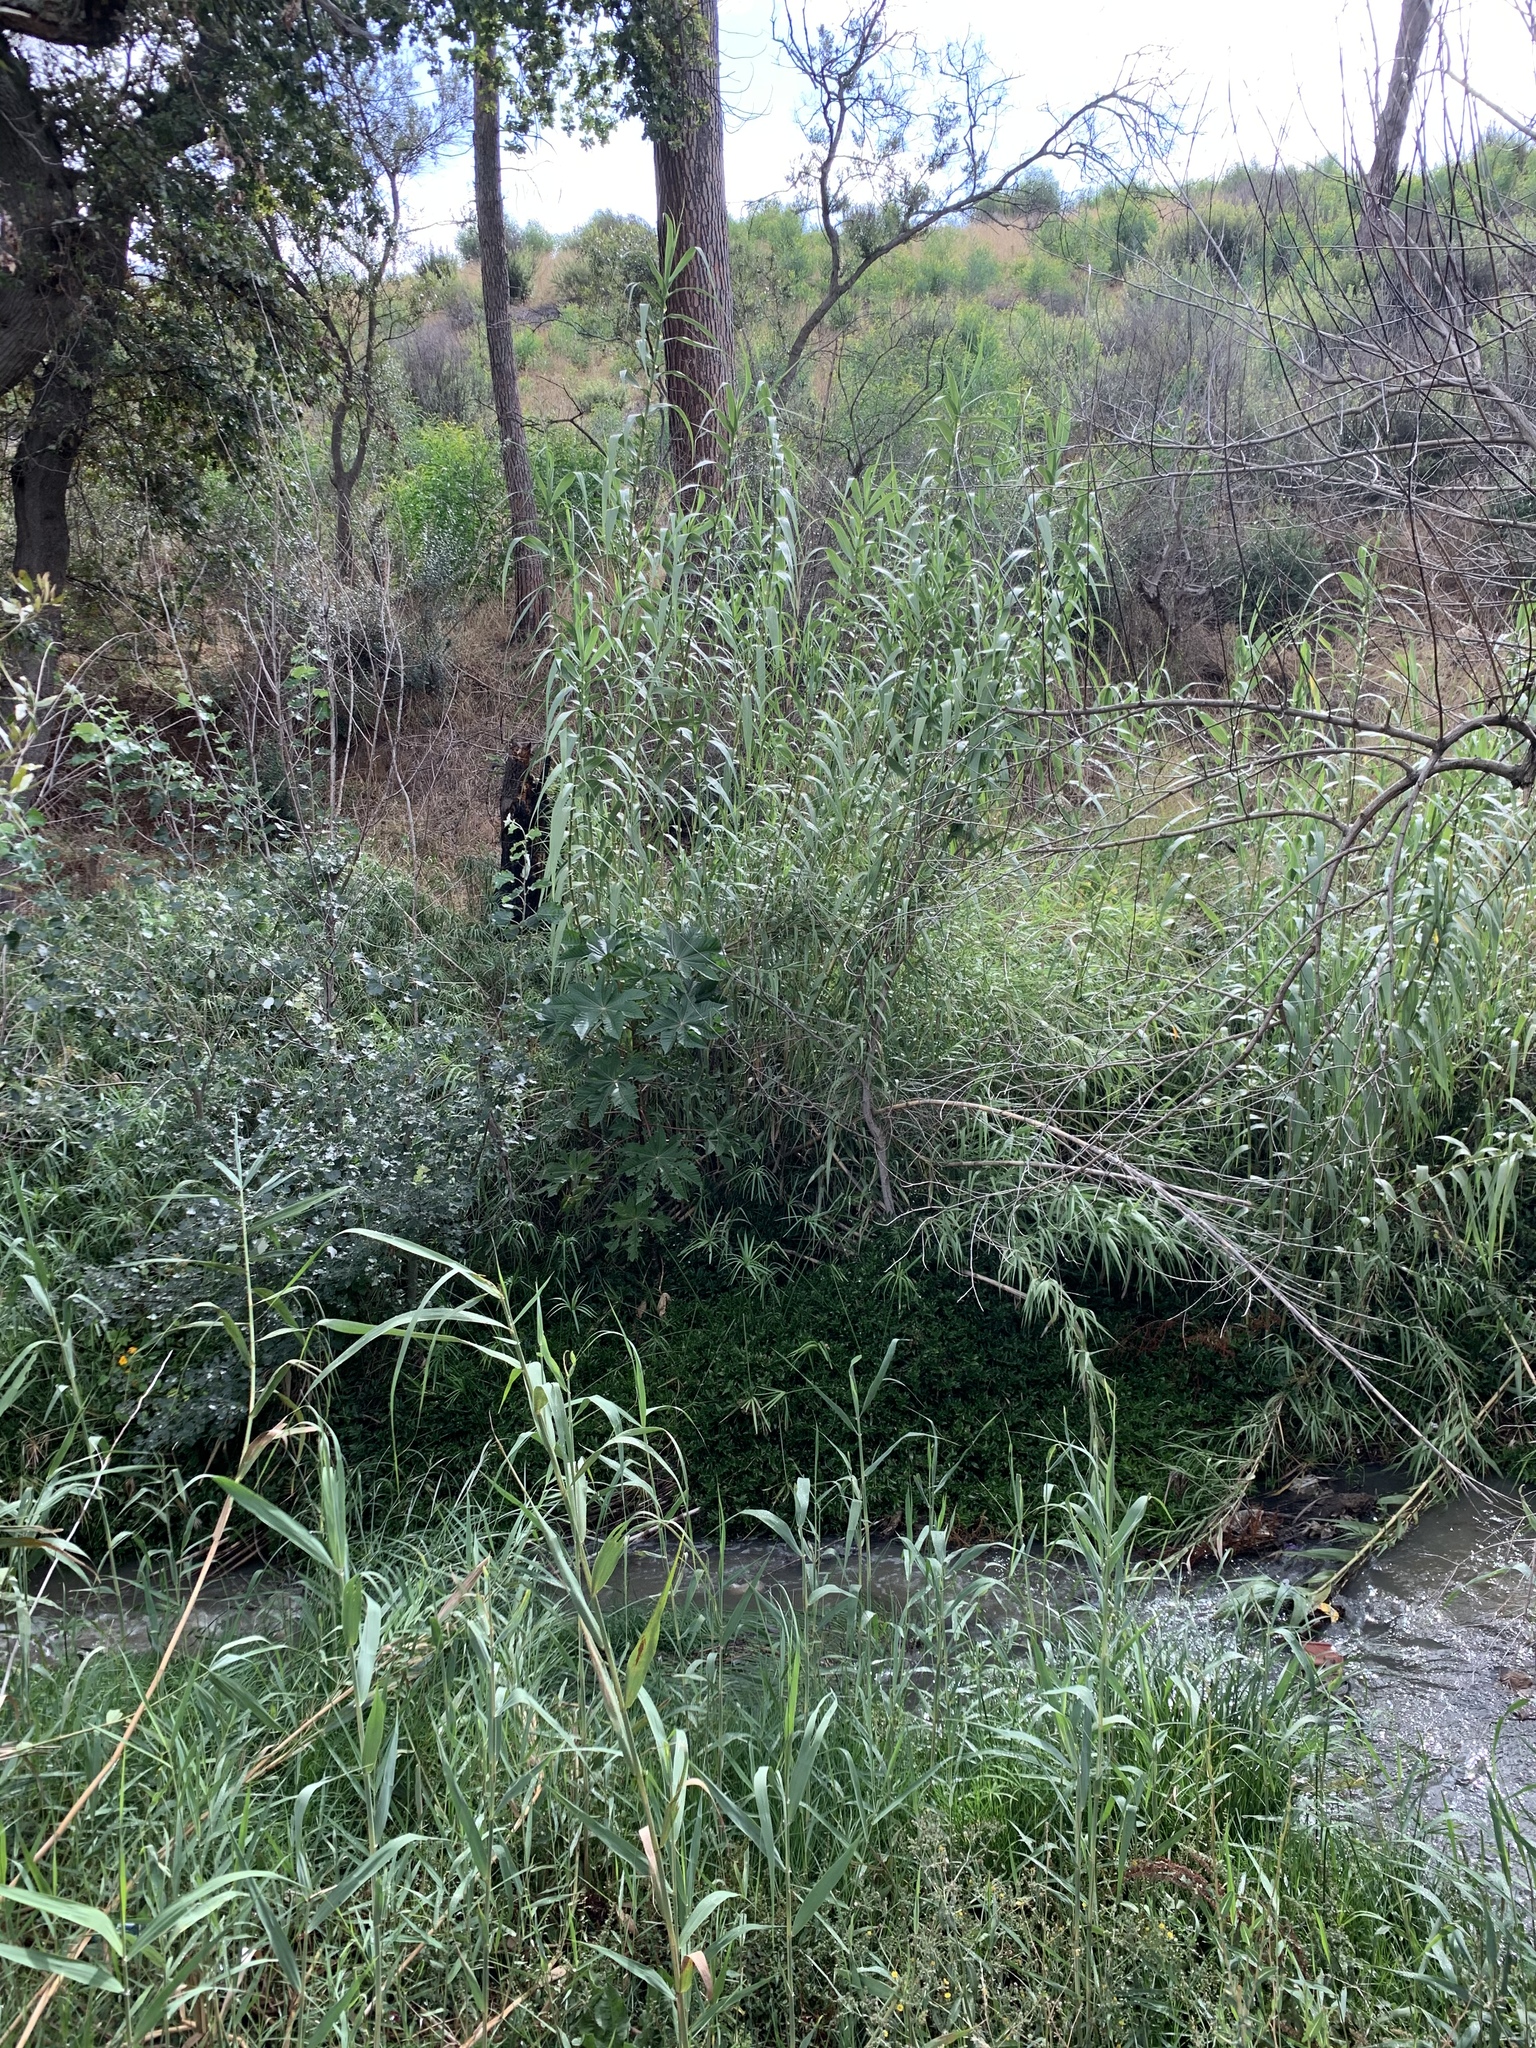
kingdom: Plantae
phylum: Tracheophyta
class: Liliopsida
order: Poales
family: Poaceae
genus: Arundo
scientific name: Arundo donax
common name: Giant reed
